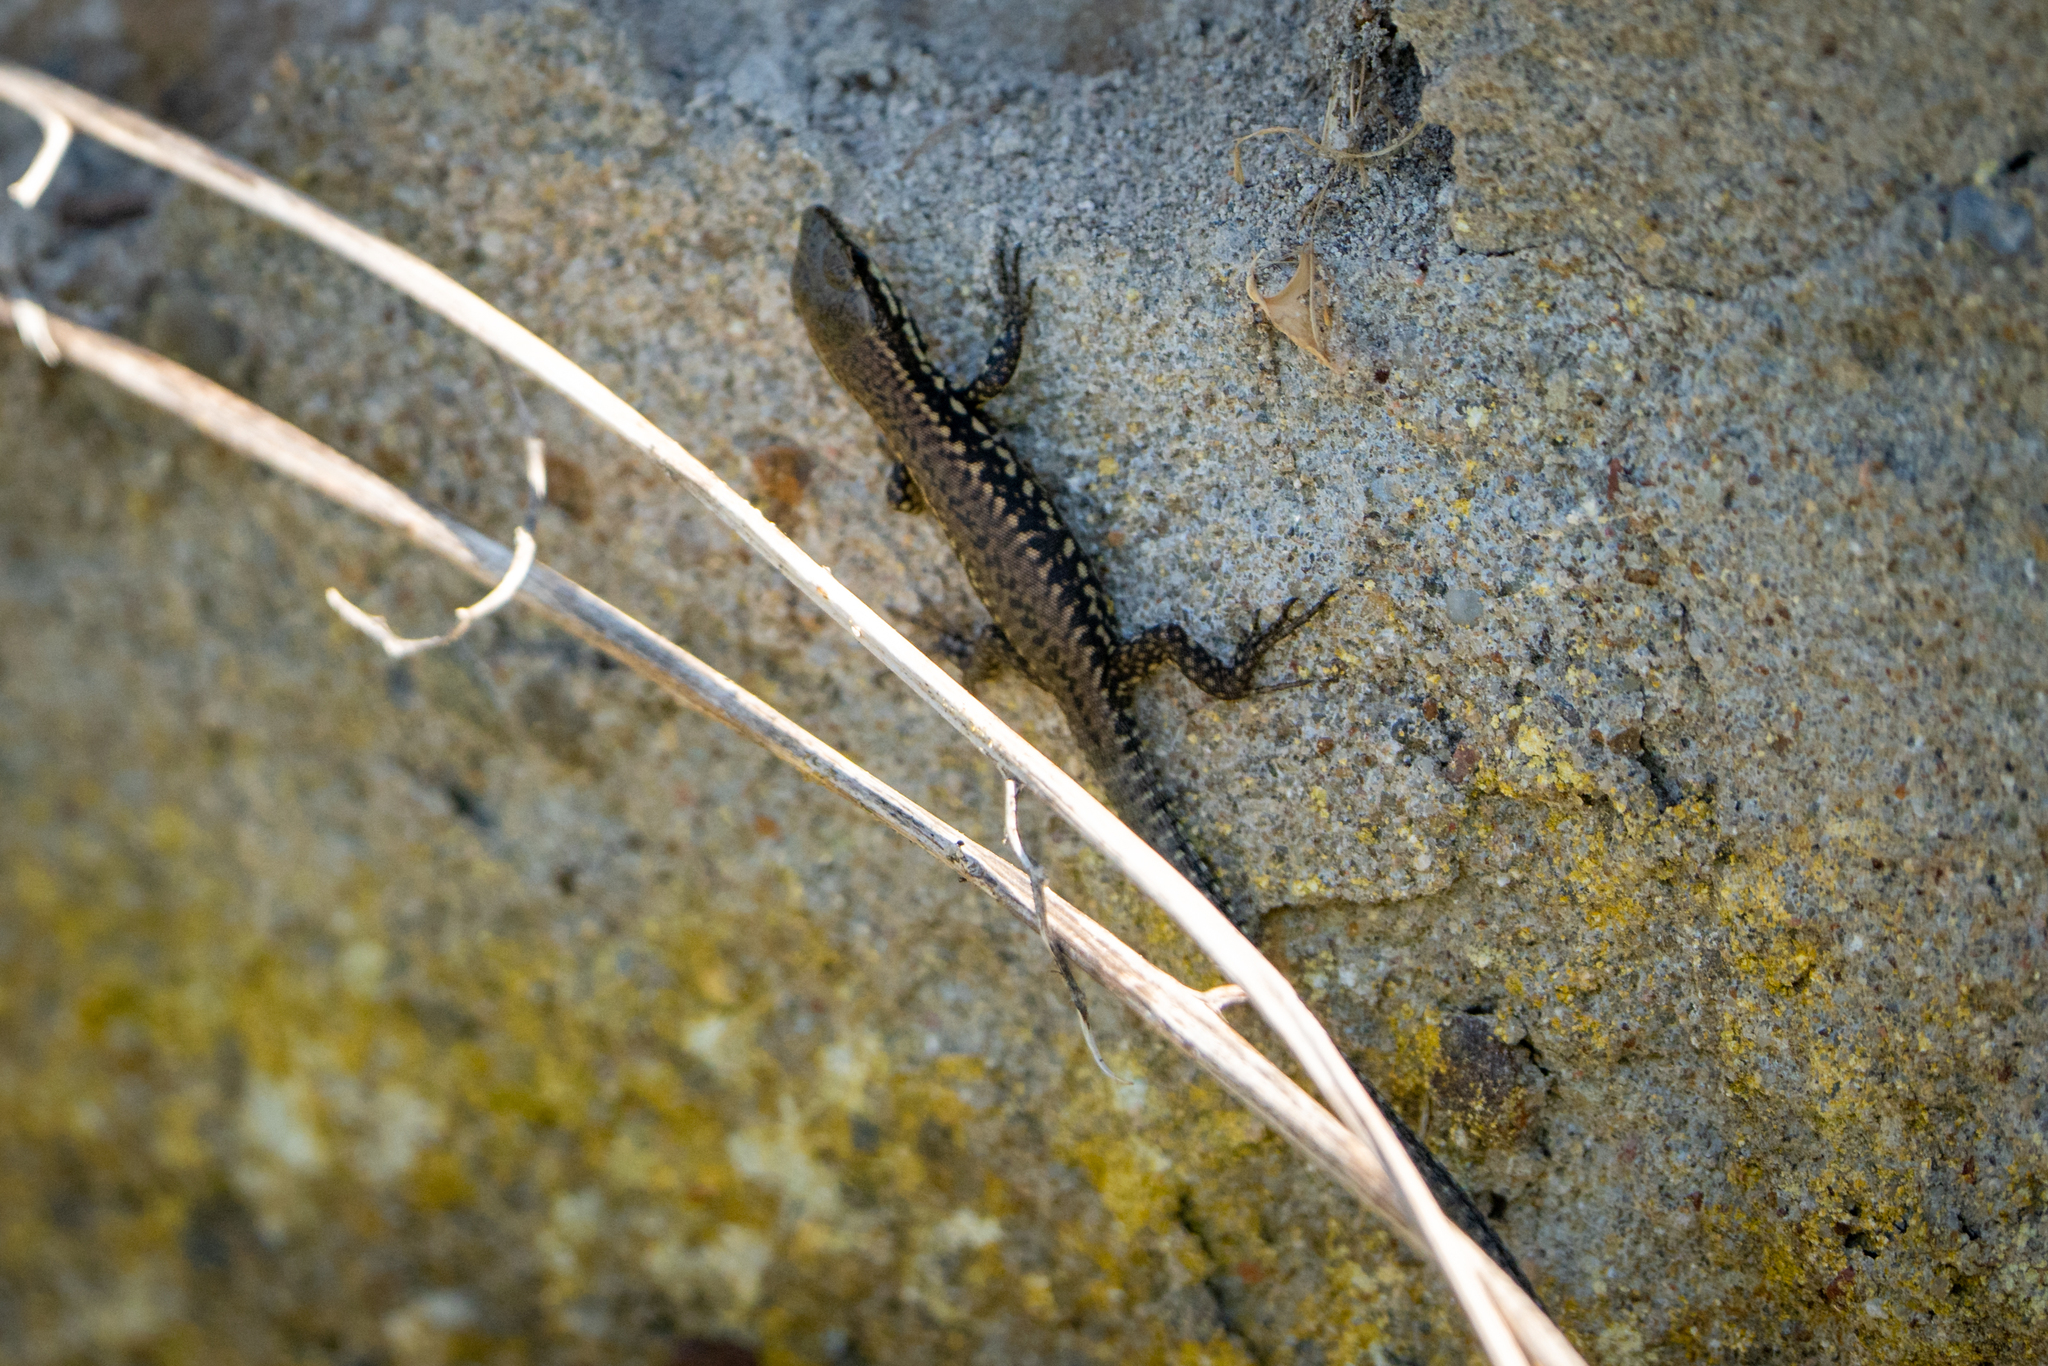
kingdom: Animalia
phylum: Chordata
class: Squamata
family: Lacertidae
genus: Podarcis
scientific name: Podarcis muralis
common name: Common wall lizard
